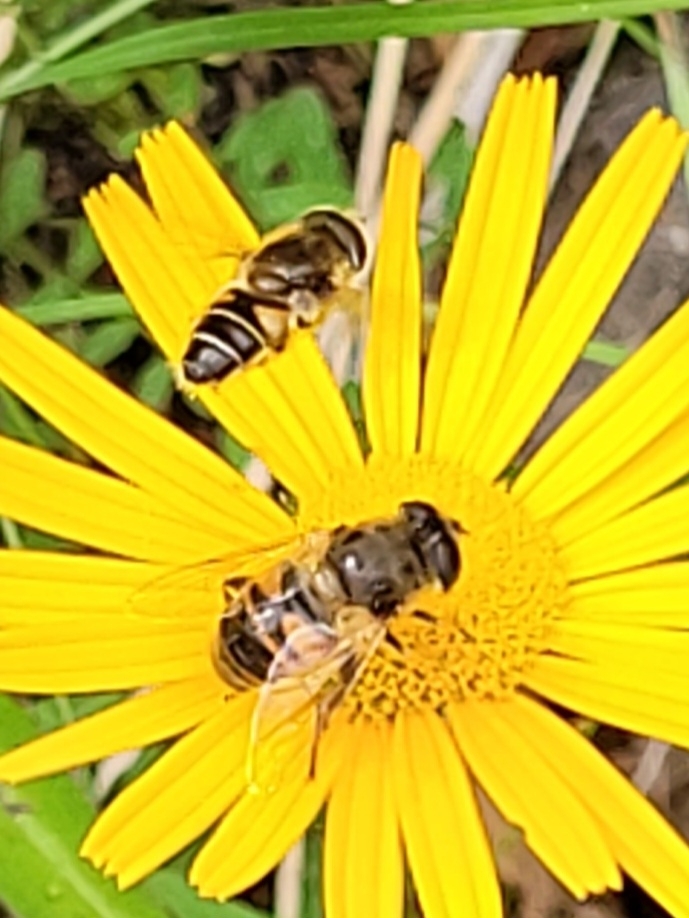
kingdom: Animalia
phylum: Arthropoda
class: Insecta
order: Diptera
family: Syrphidae
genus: Eristalis
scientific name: Eristalis tenax
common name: Drone fly
